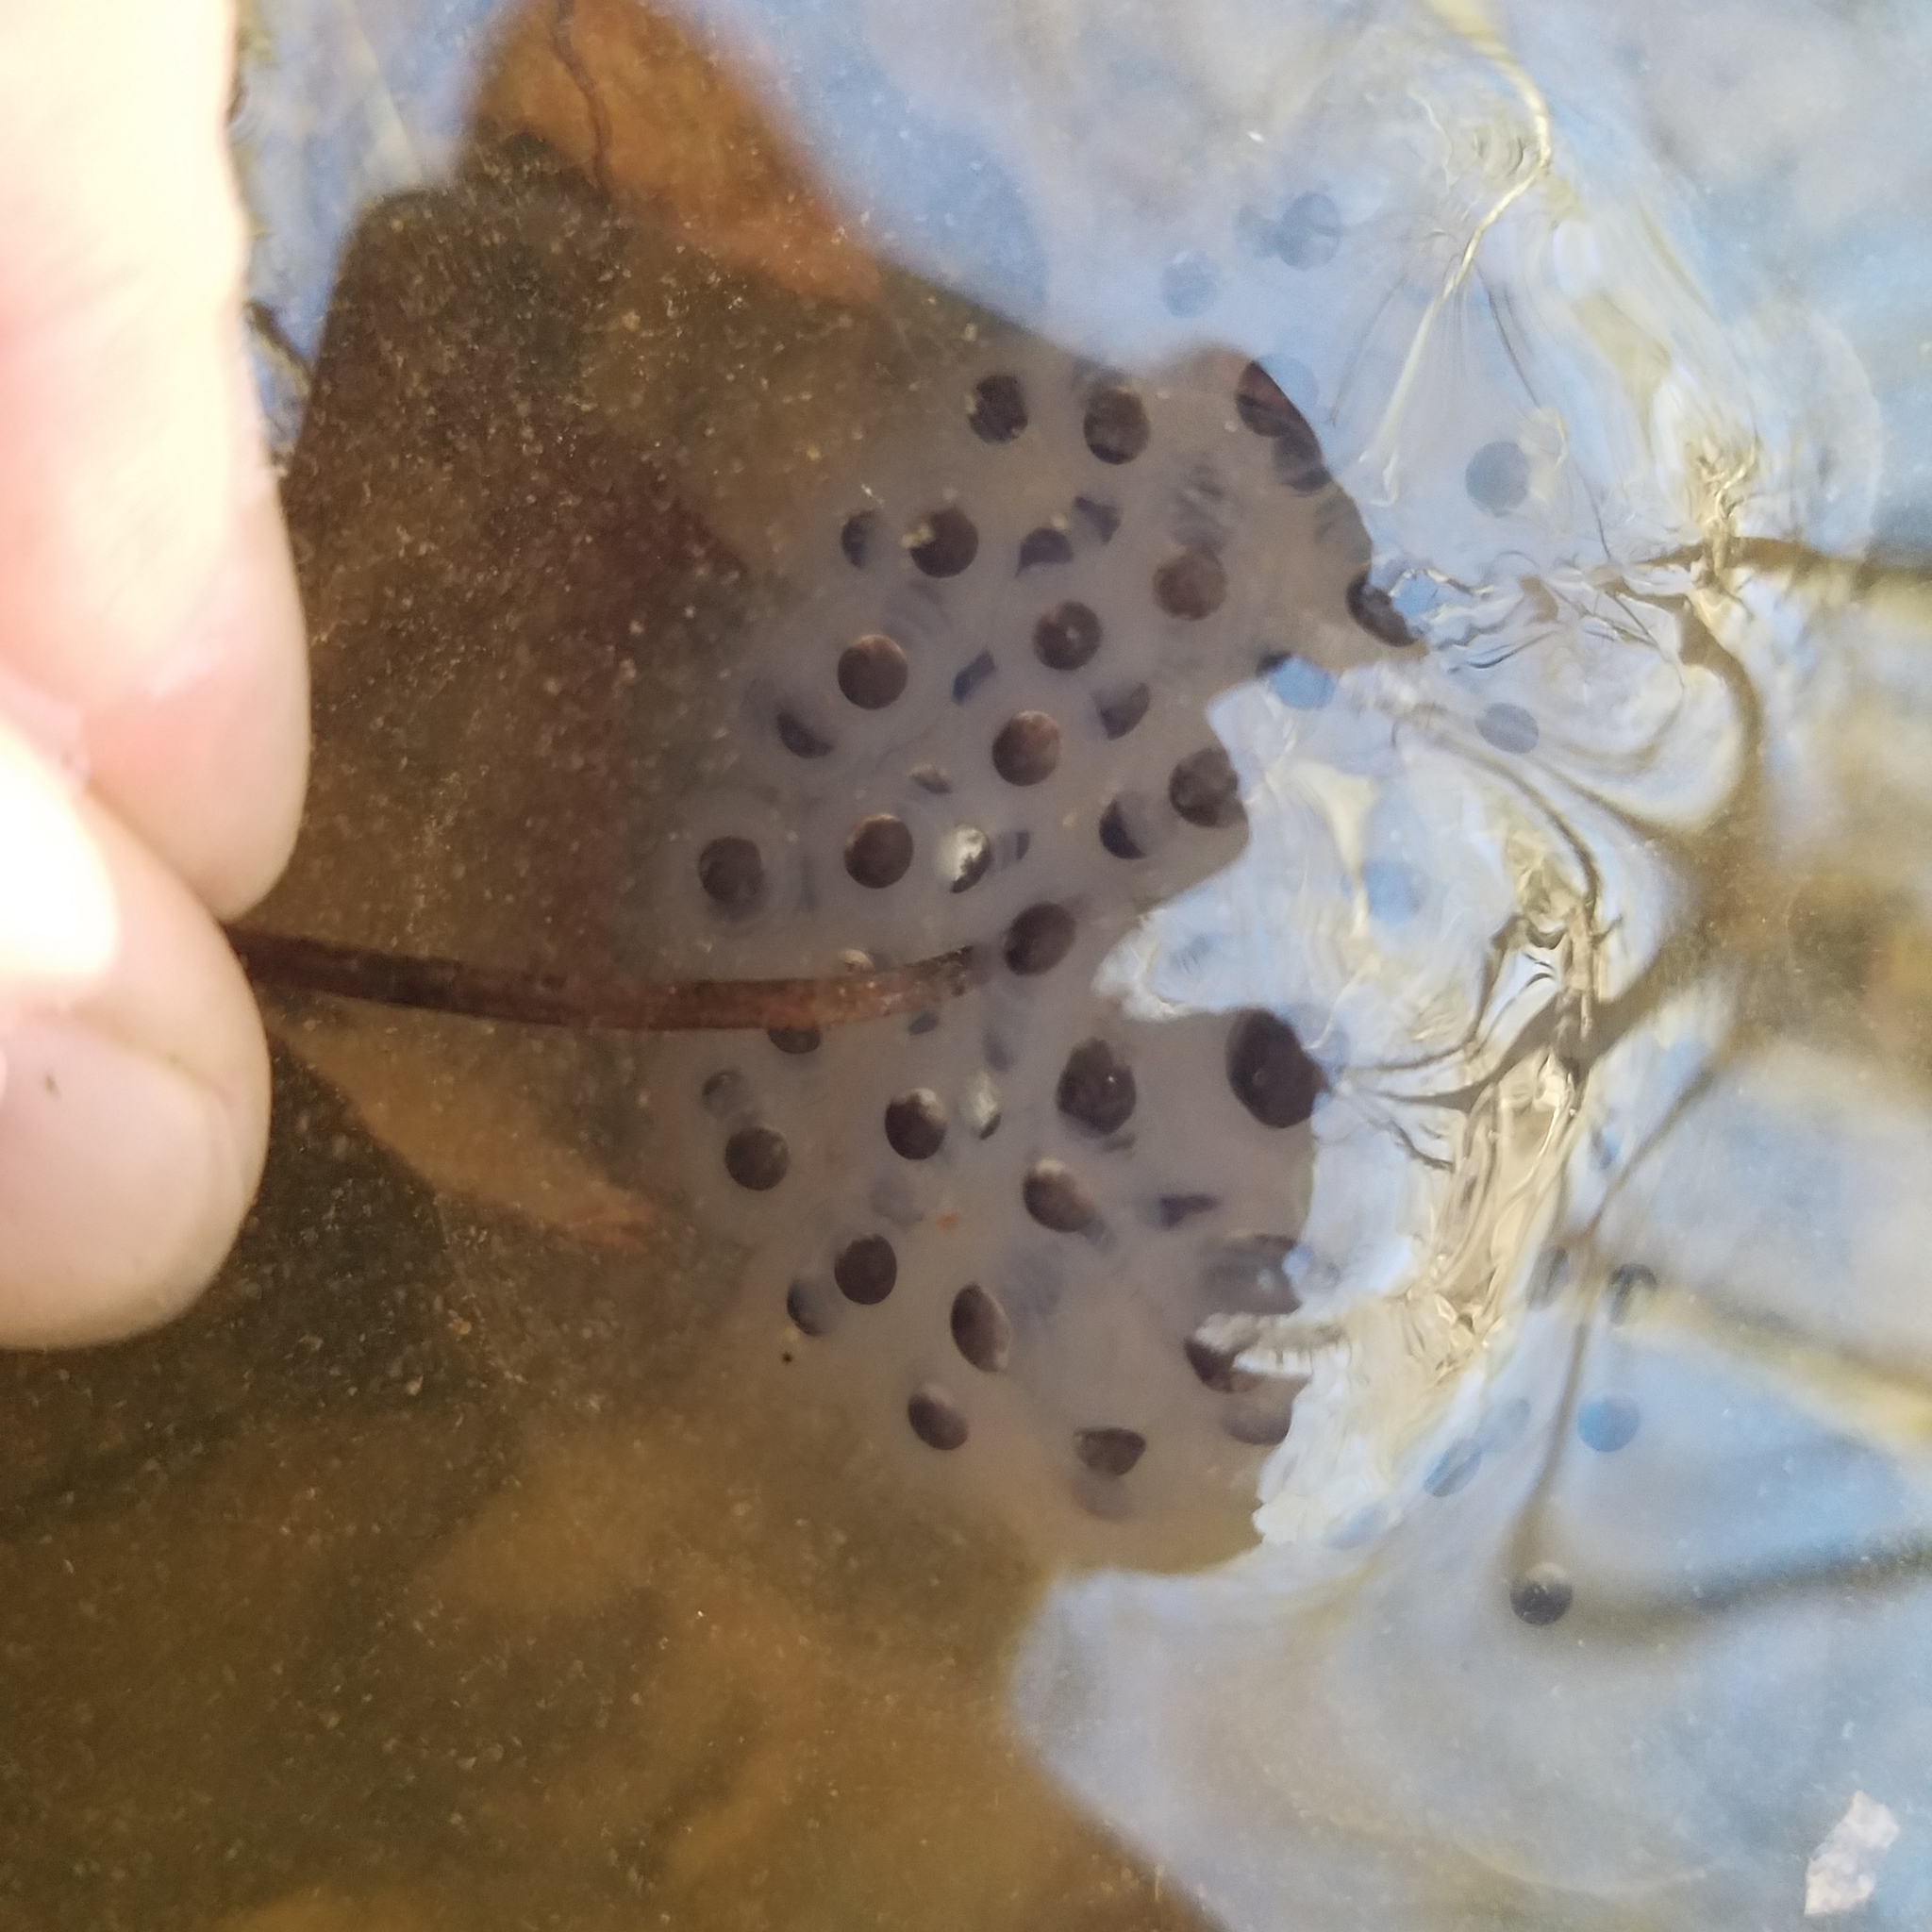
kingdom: Animalia
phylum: Chordata
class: Amphibia
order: Caudata
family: Ambystomatidae
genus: Ambystoma
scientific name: Ambystoma maculatum
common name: Spotted salamander
